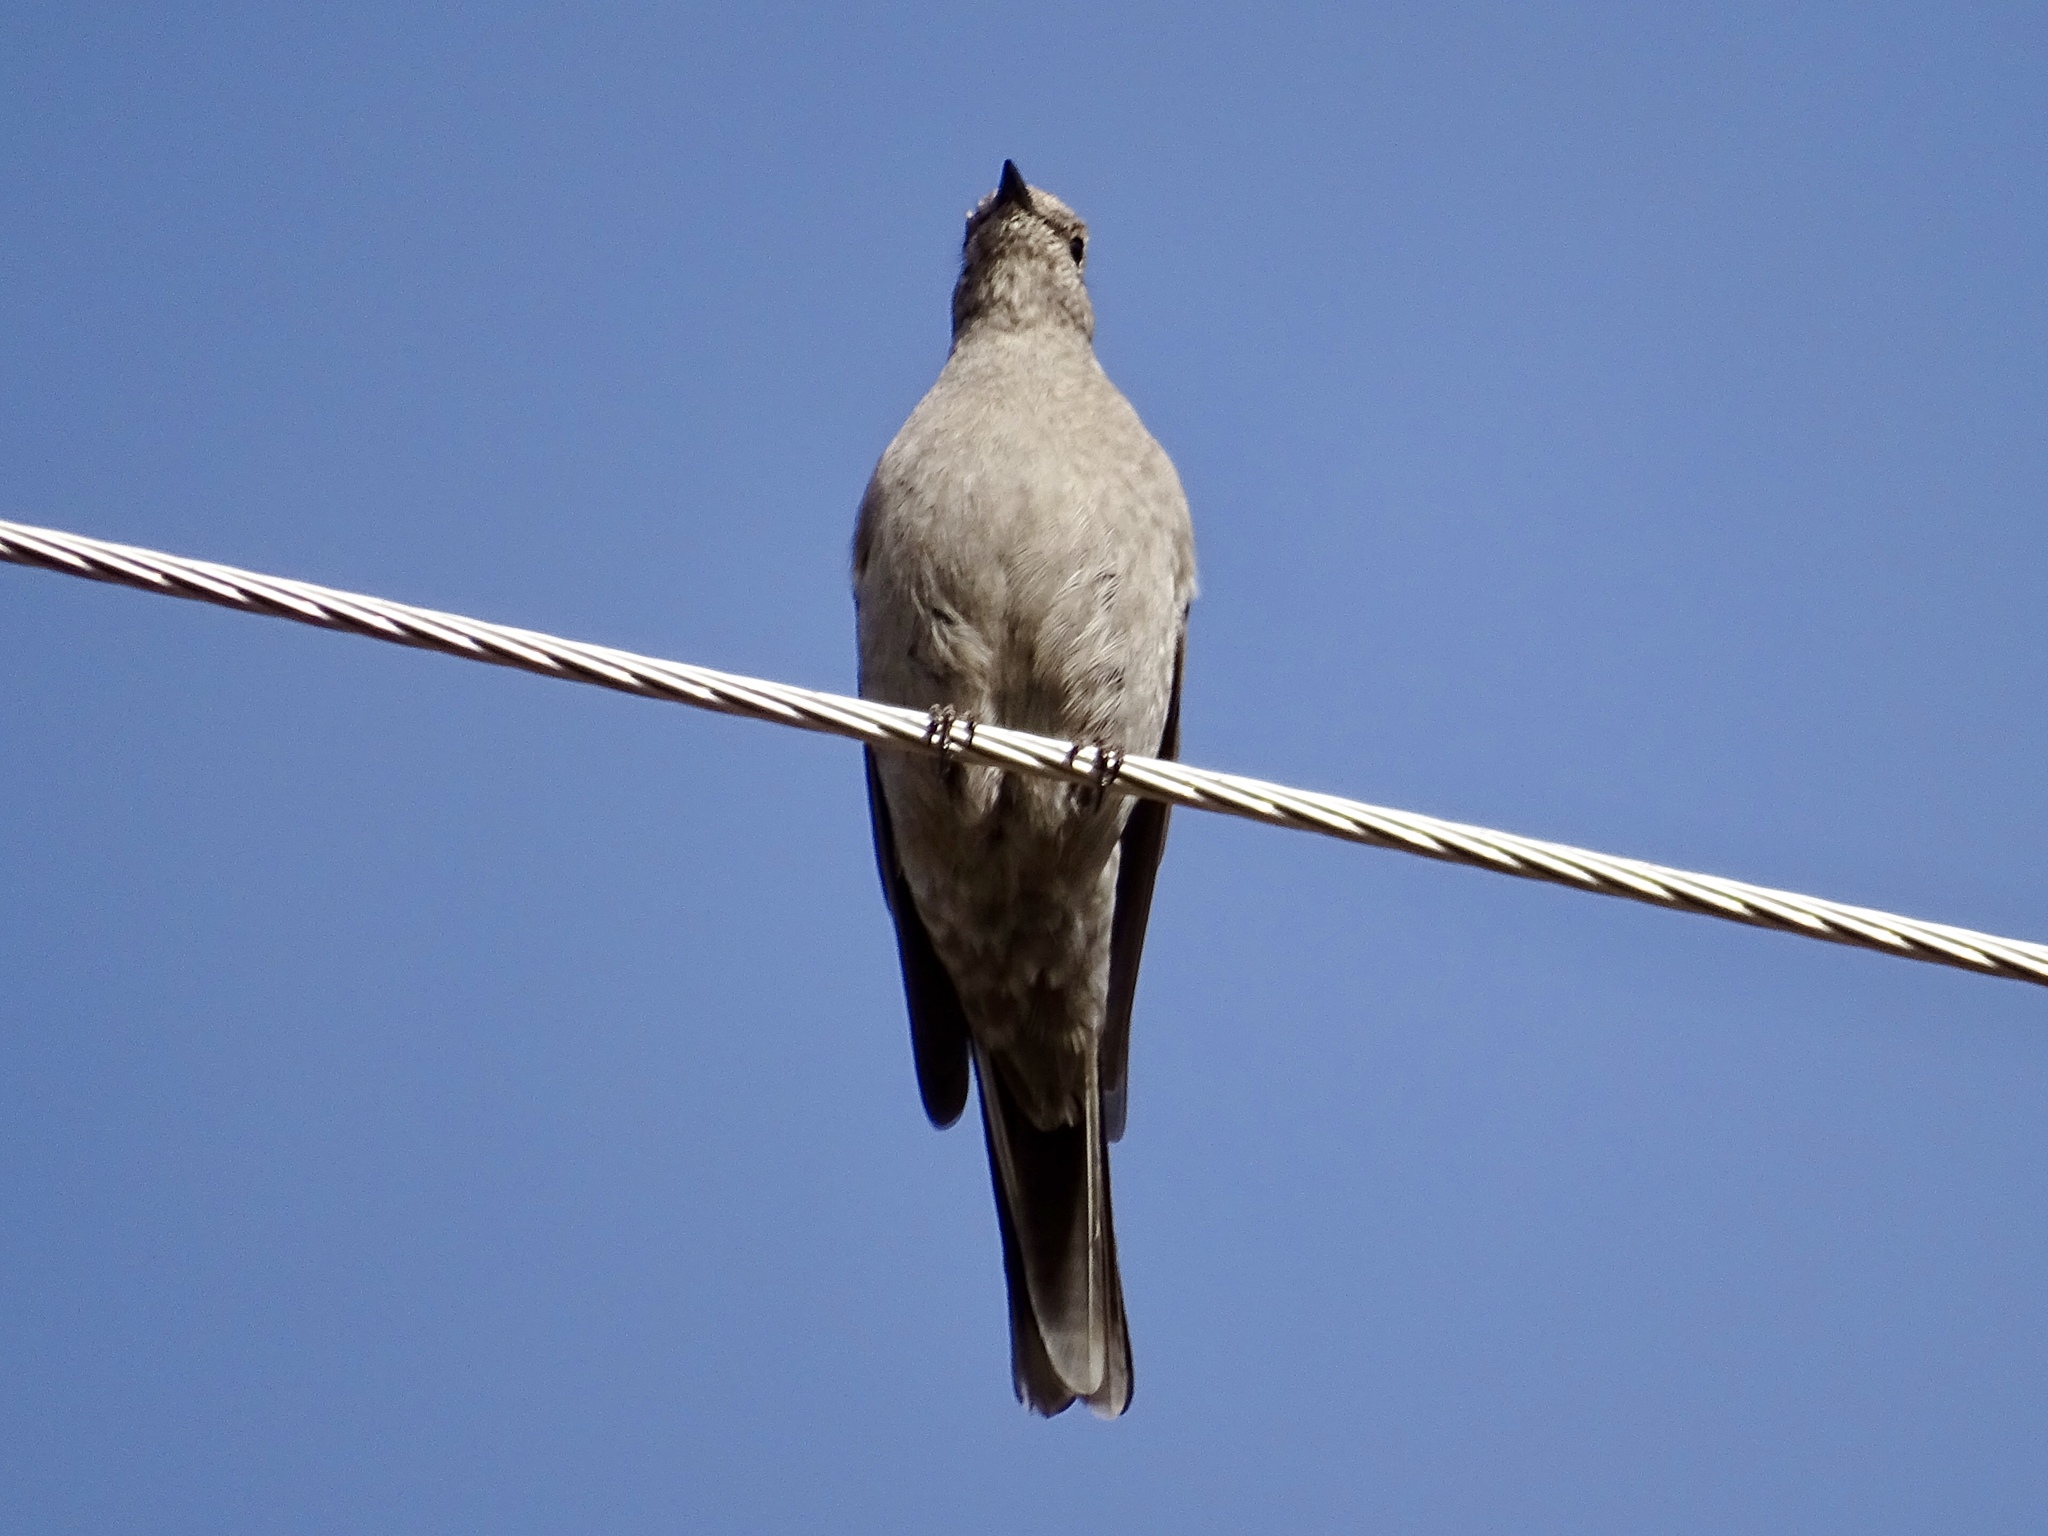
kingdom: Animalia
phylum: Chordata
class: Aves
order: Passeriformes
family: Turdidae
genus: Myadestes
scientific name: Myadestes townsendi
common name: Townsend's solitaire
